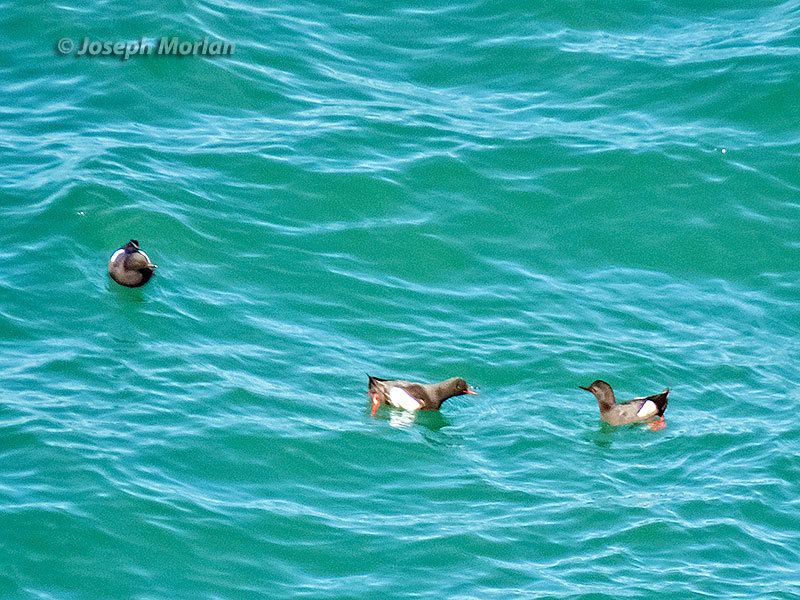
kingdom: Animalia
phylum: Chordata
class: Aves
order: Charadriiformes
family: Alcidae
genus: Cepphus
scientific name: Cepphus columba
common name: Pigeon guillemot
